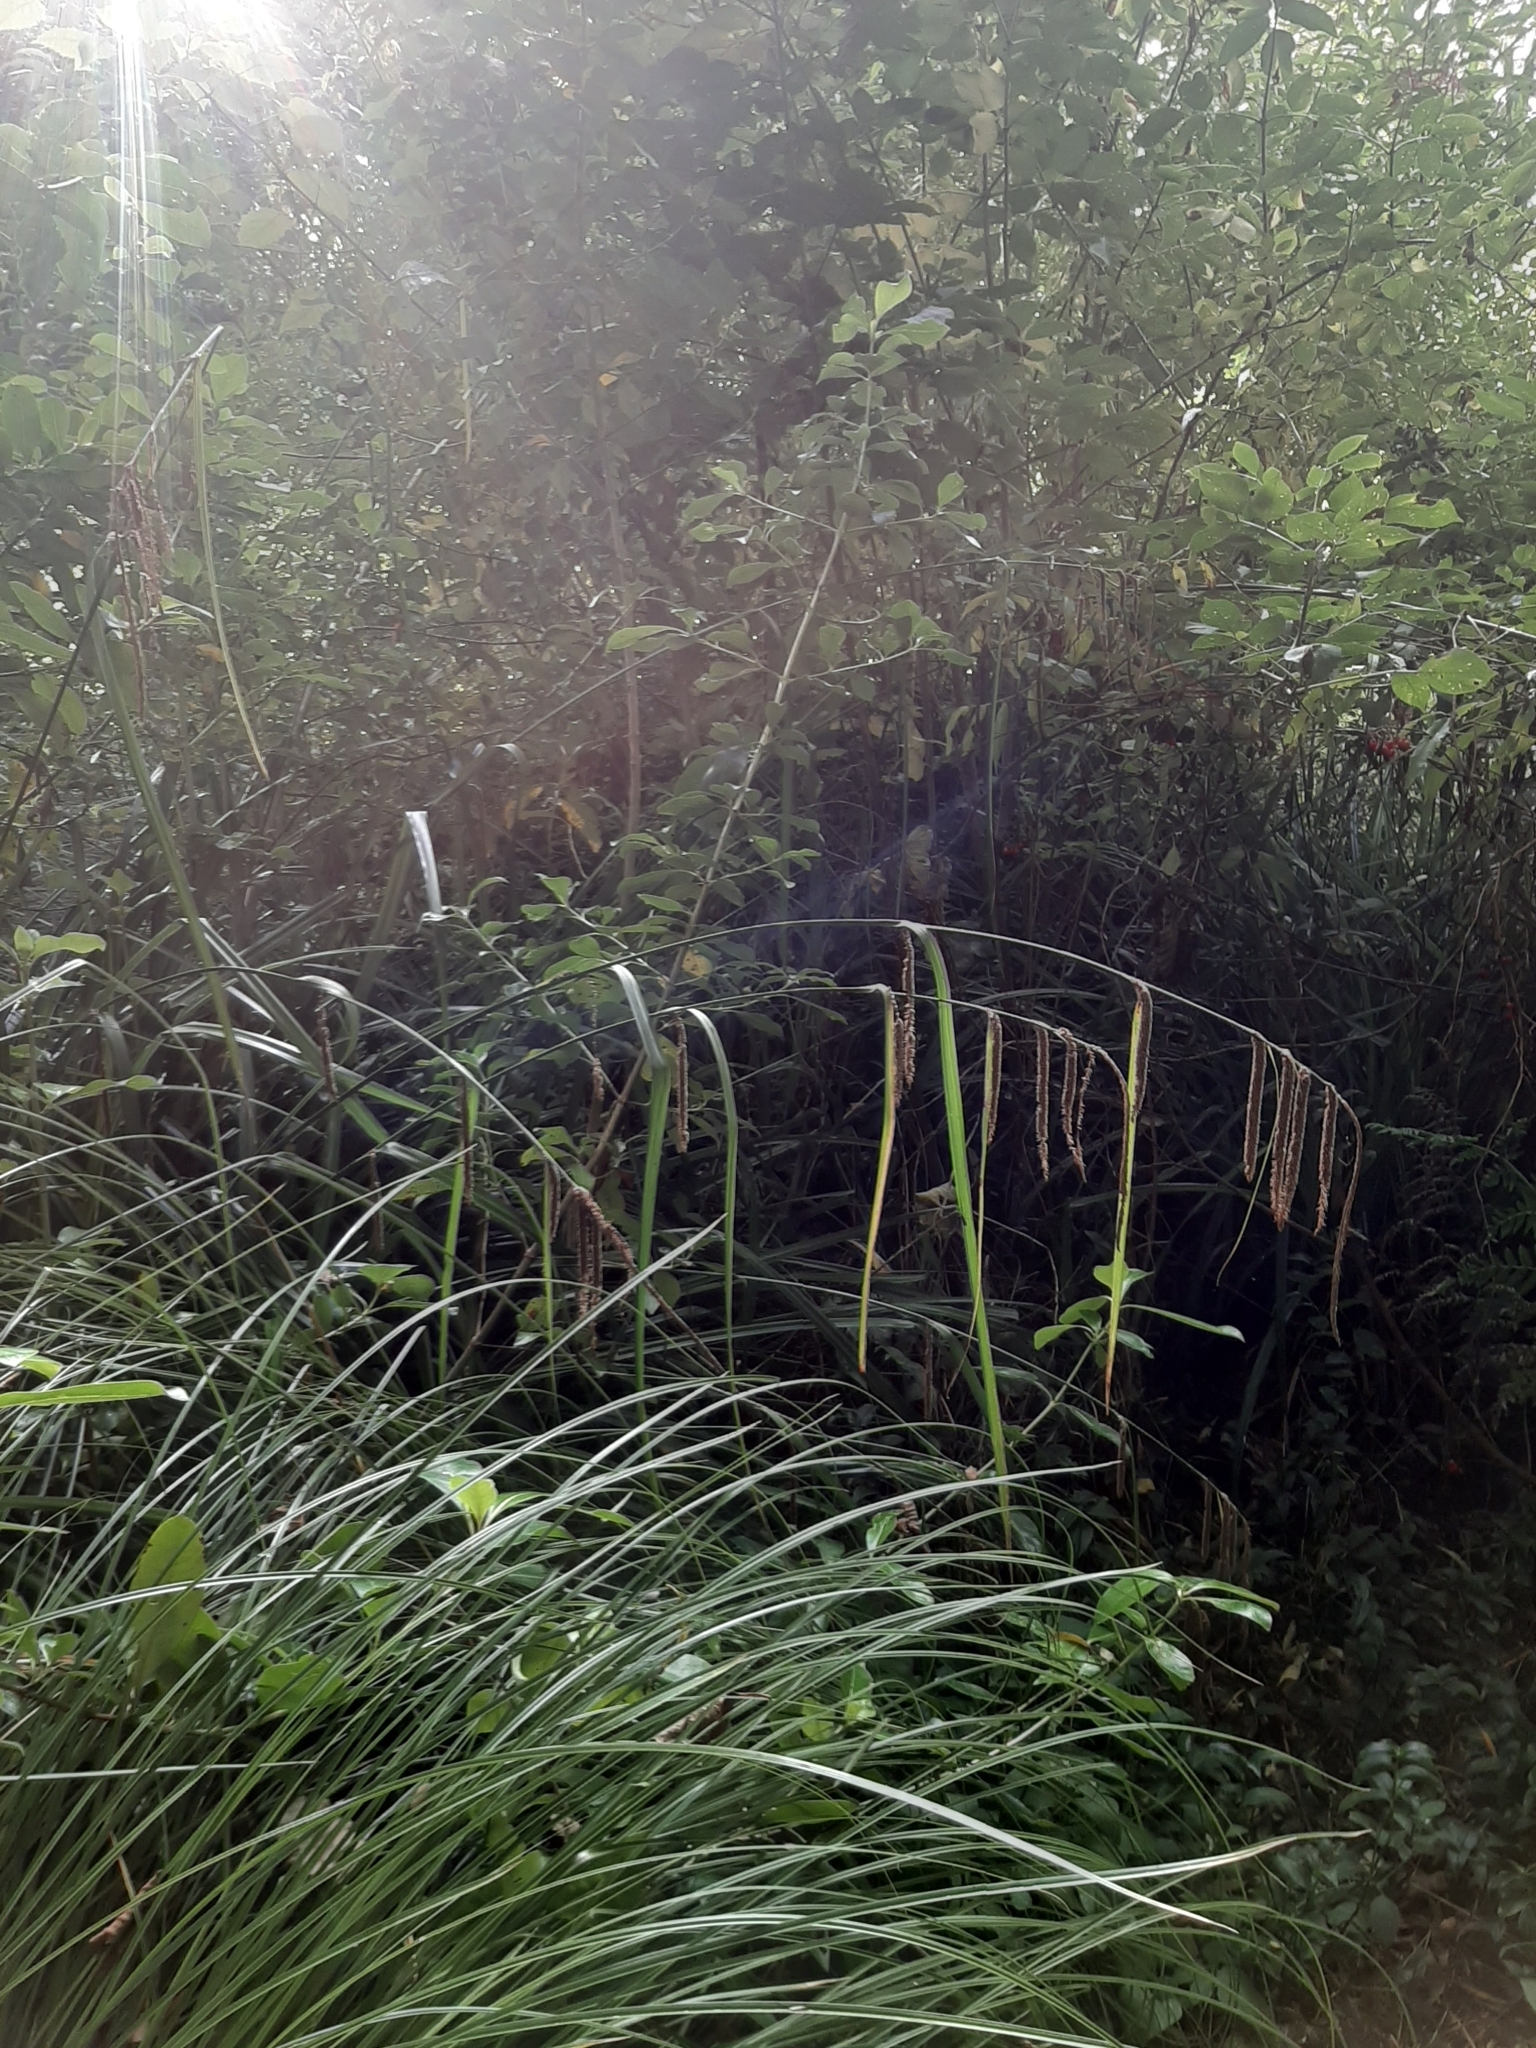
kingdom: Plantae
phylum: Tracheophyta
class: Liliopsida
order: Poales
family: Cyperaceae
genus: Carex
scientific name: Carex pendula
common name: Pendulous sedge
